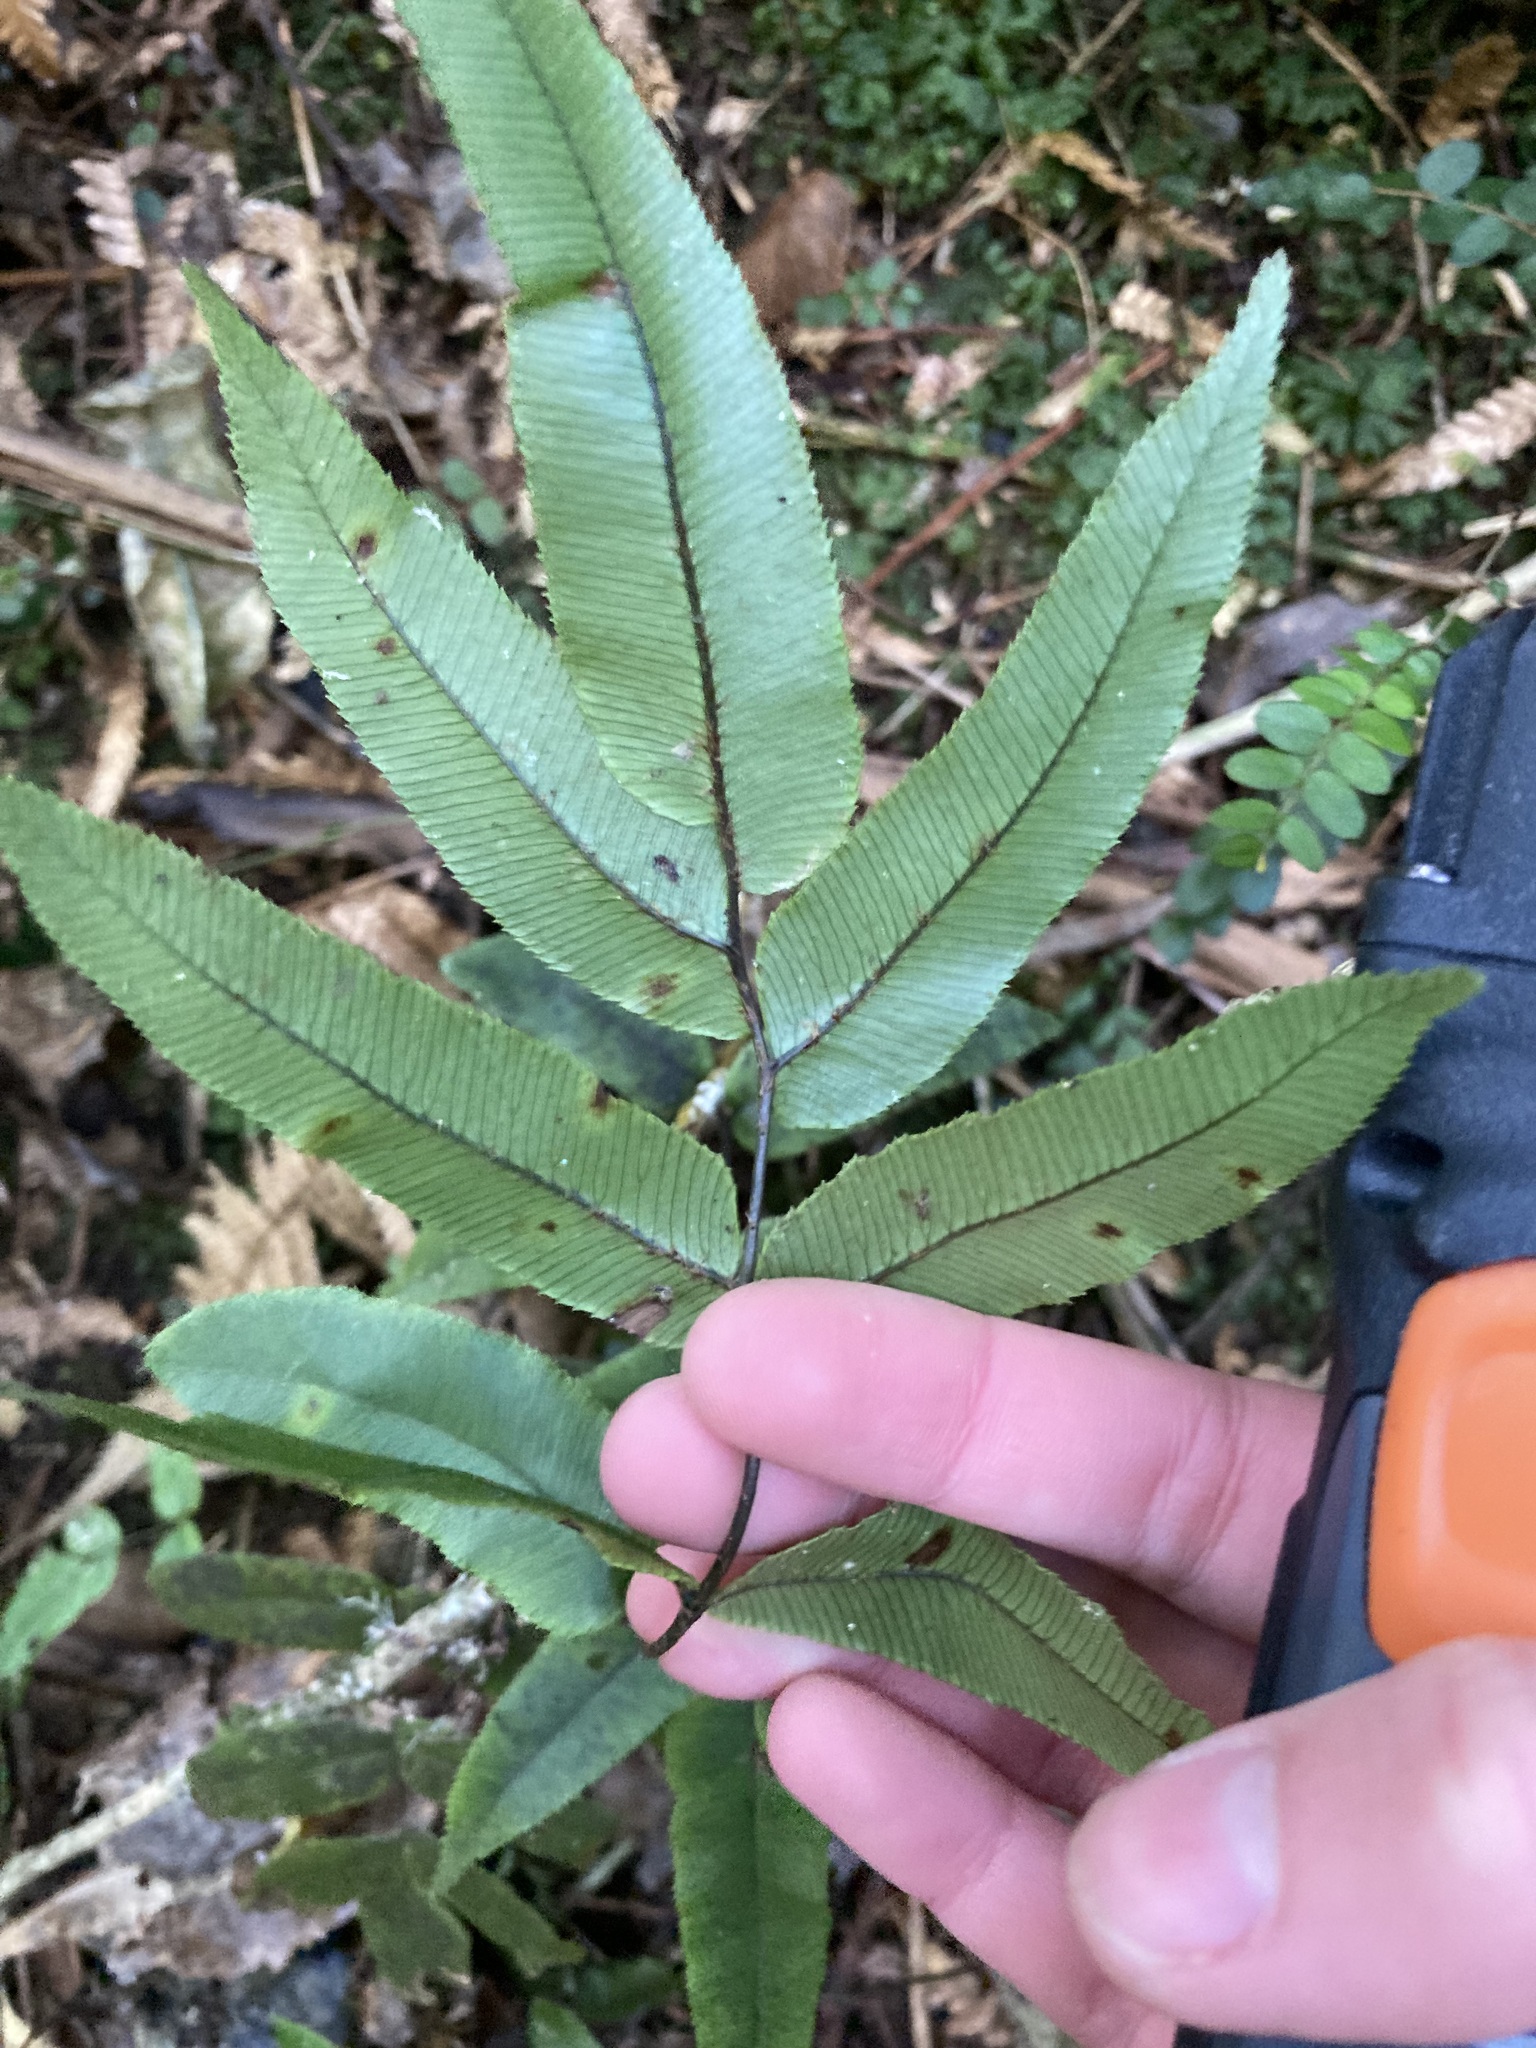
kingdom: Plantae
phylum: Tracheophyta
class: Polypodiopsida
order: Polypodiales
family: Blechnaceae
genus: Parablechnum
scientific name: Parablechnum procerum
